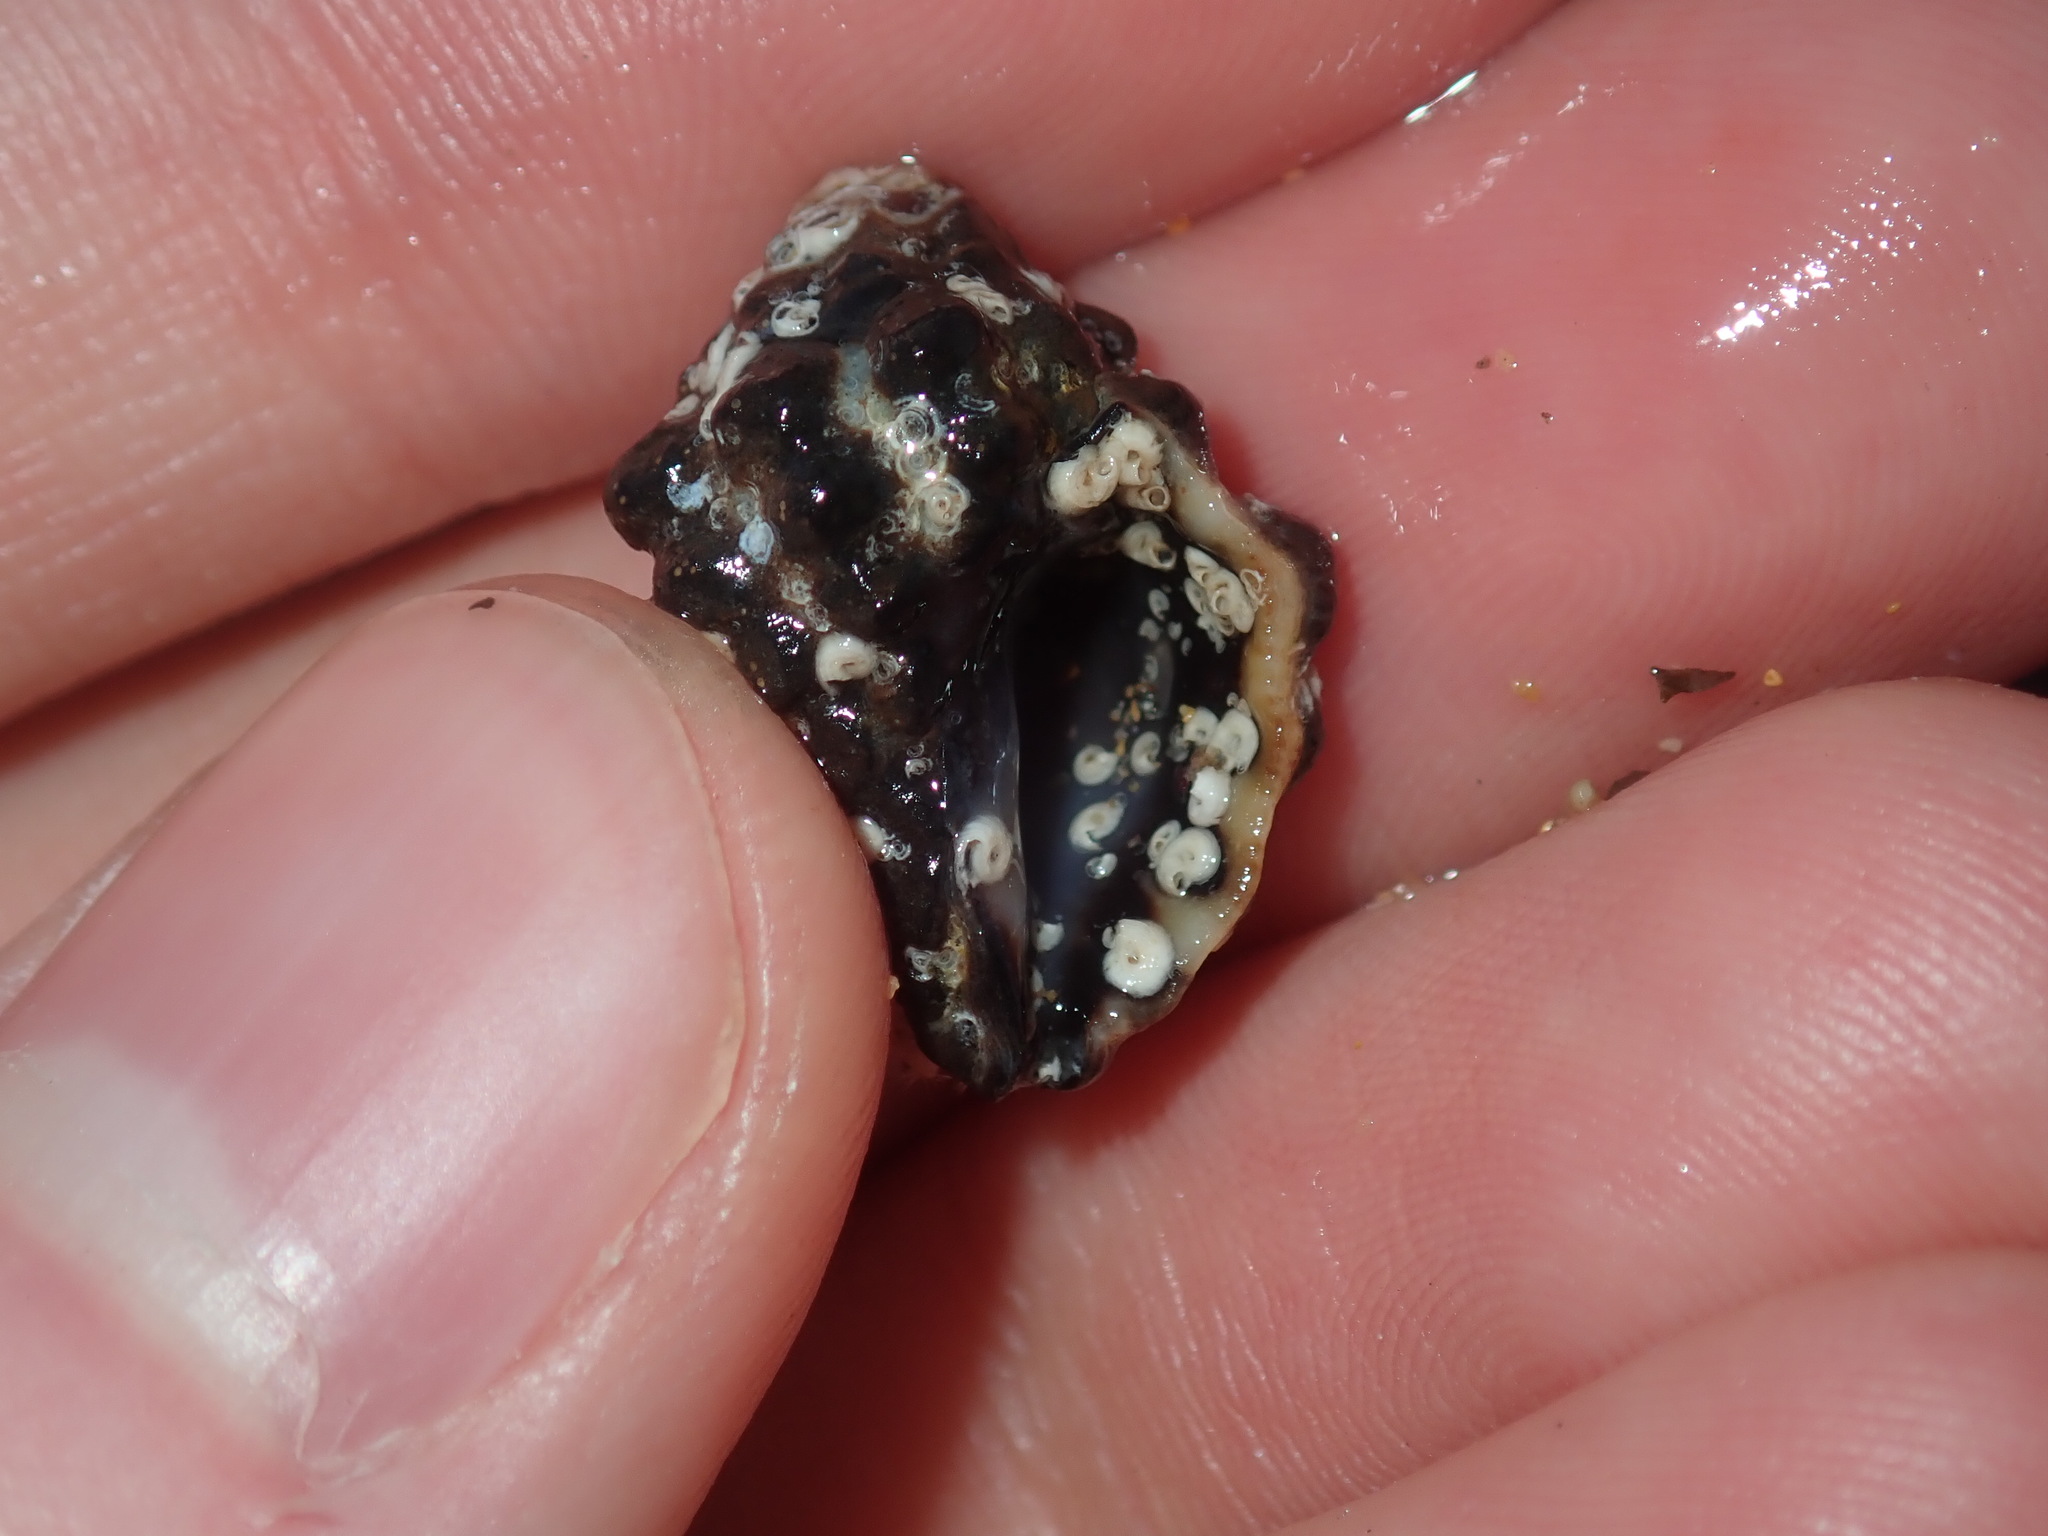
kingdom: Animalia
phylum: Mollusca
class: Gastropoda
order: Neogastropoda
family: Muricidae
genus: Tenguella
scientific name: Tenguella marginalba
